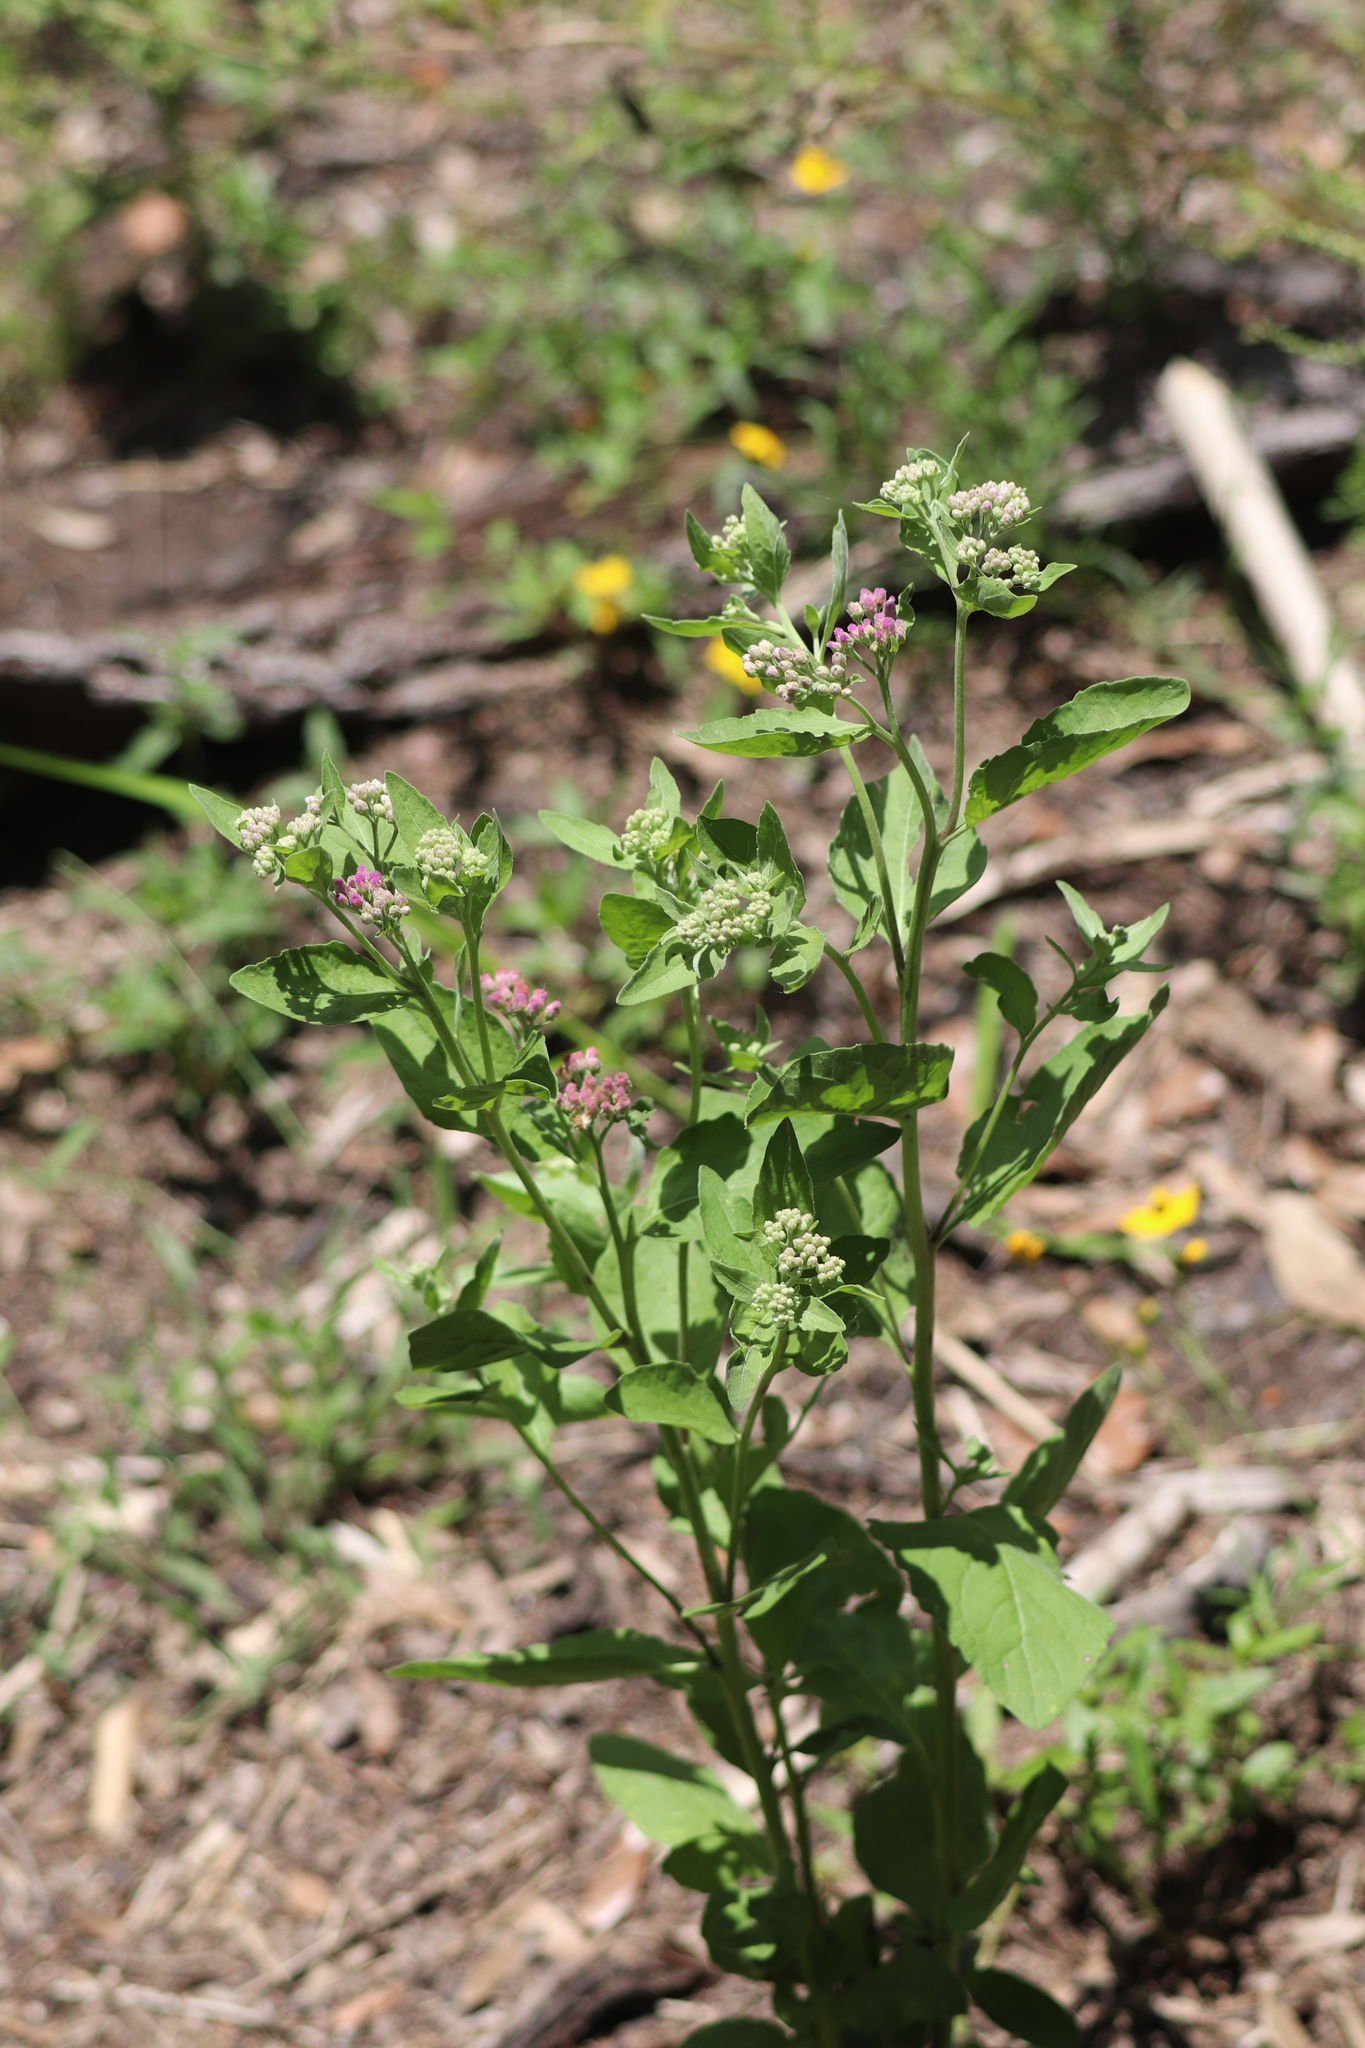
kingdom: Plantae
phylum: Tracheophyta
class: Magnoliopsida
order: Asterales
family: Asteraceae
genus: Pluchea
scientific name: Pluchea odorata
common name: Saltmarsh fleabane
